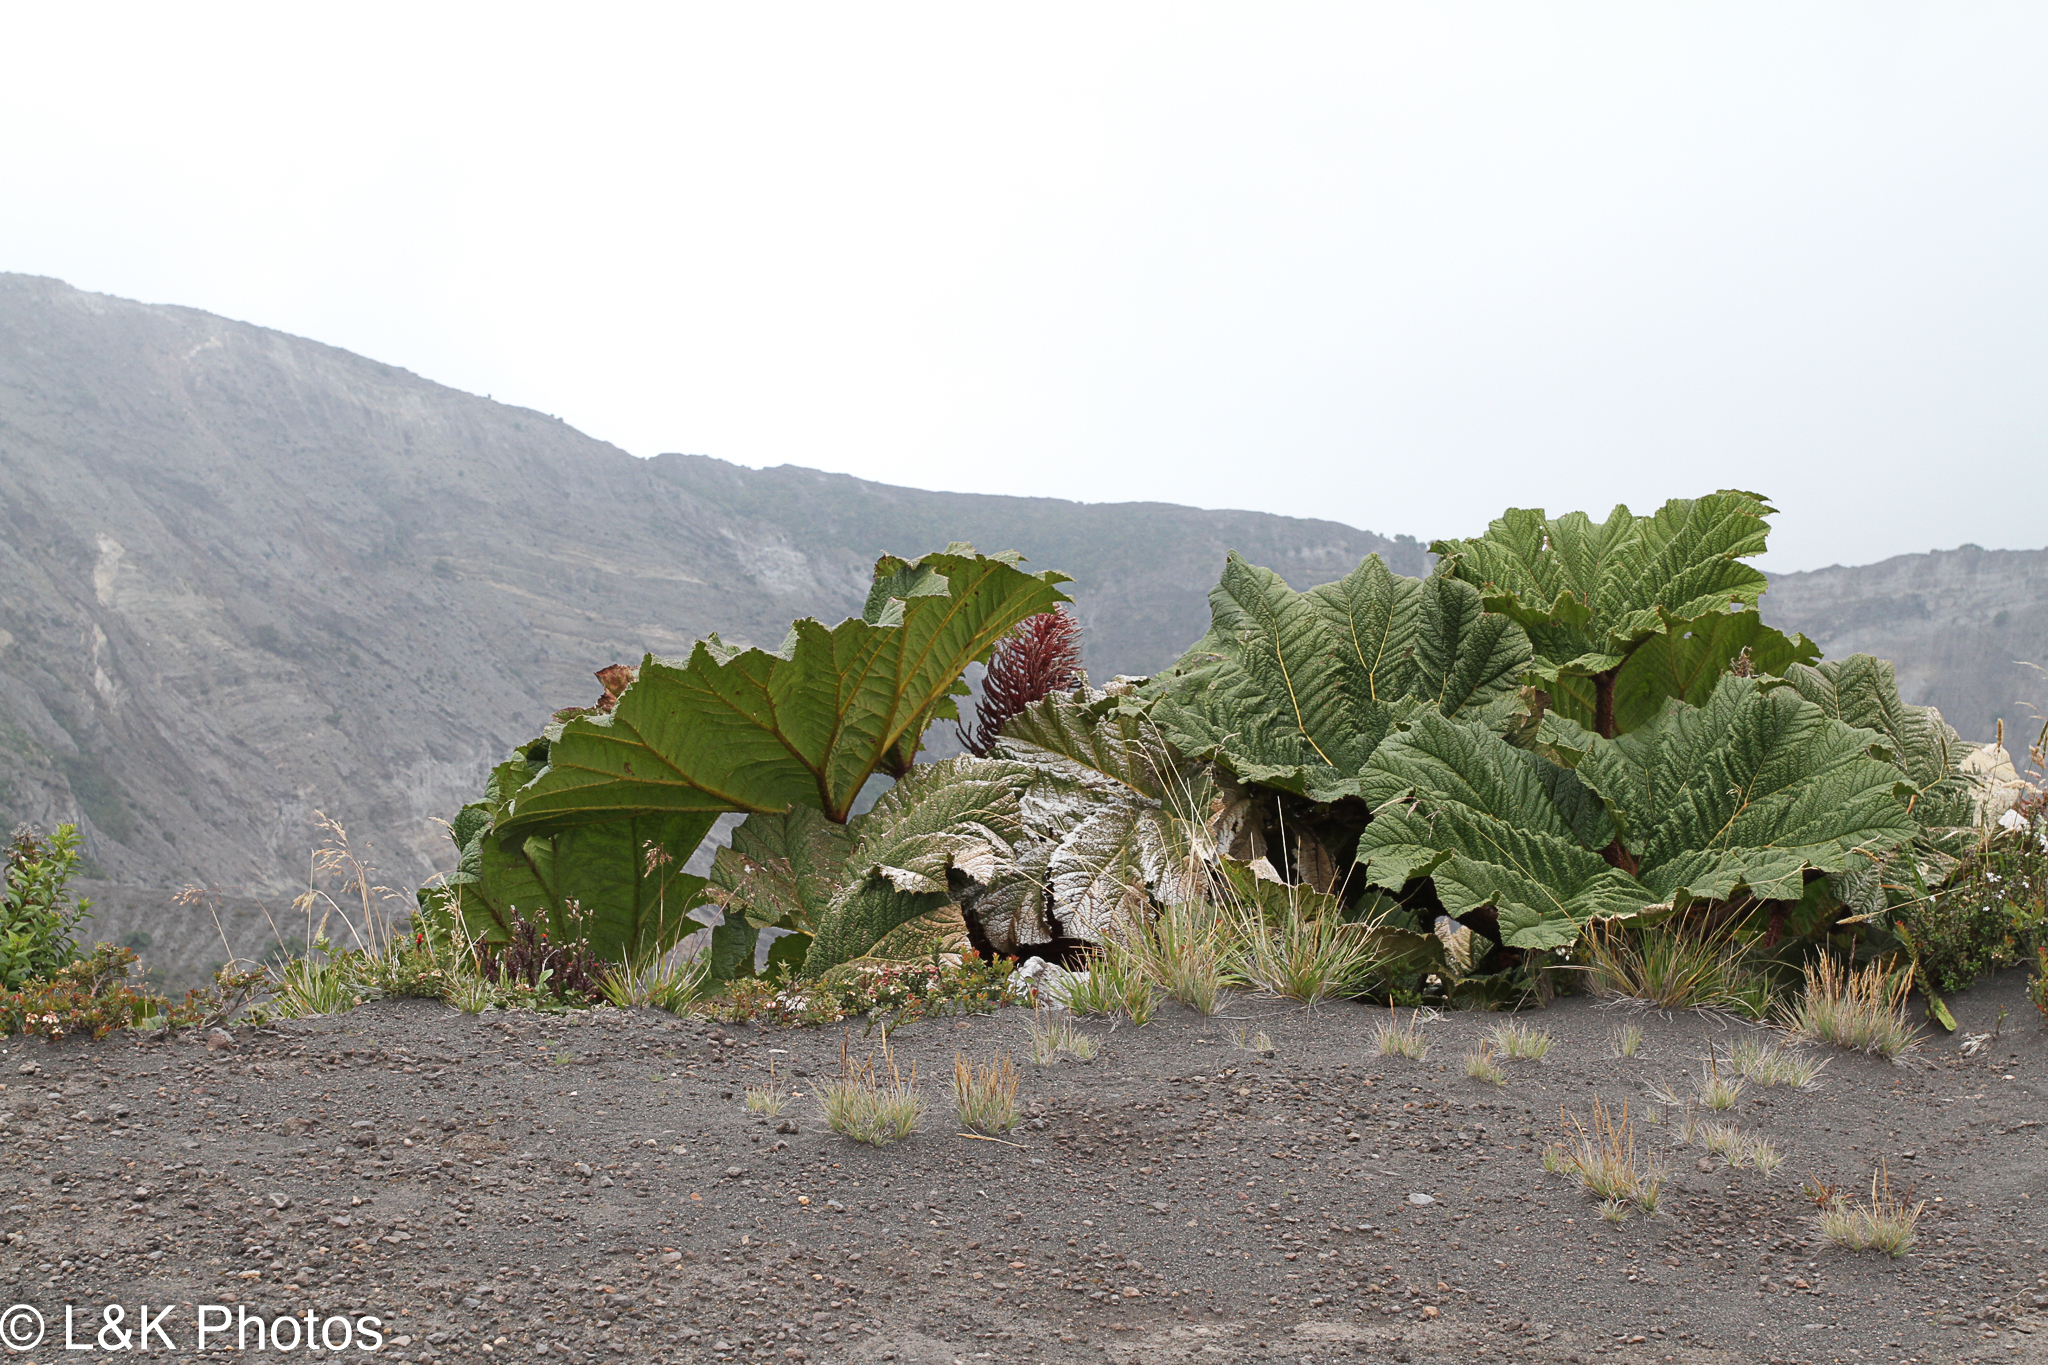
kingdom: Plantae
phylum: Tracheophyta
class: Magnoliopsida
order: Gunnerales
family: Gunneraceae
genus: Gunnera
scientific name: Gunnera insignis
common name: Poorman's umbrella
